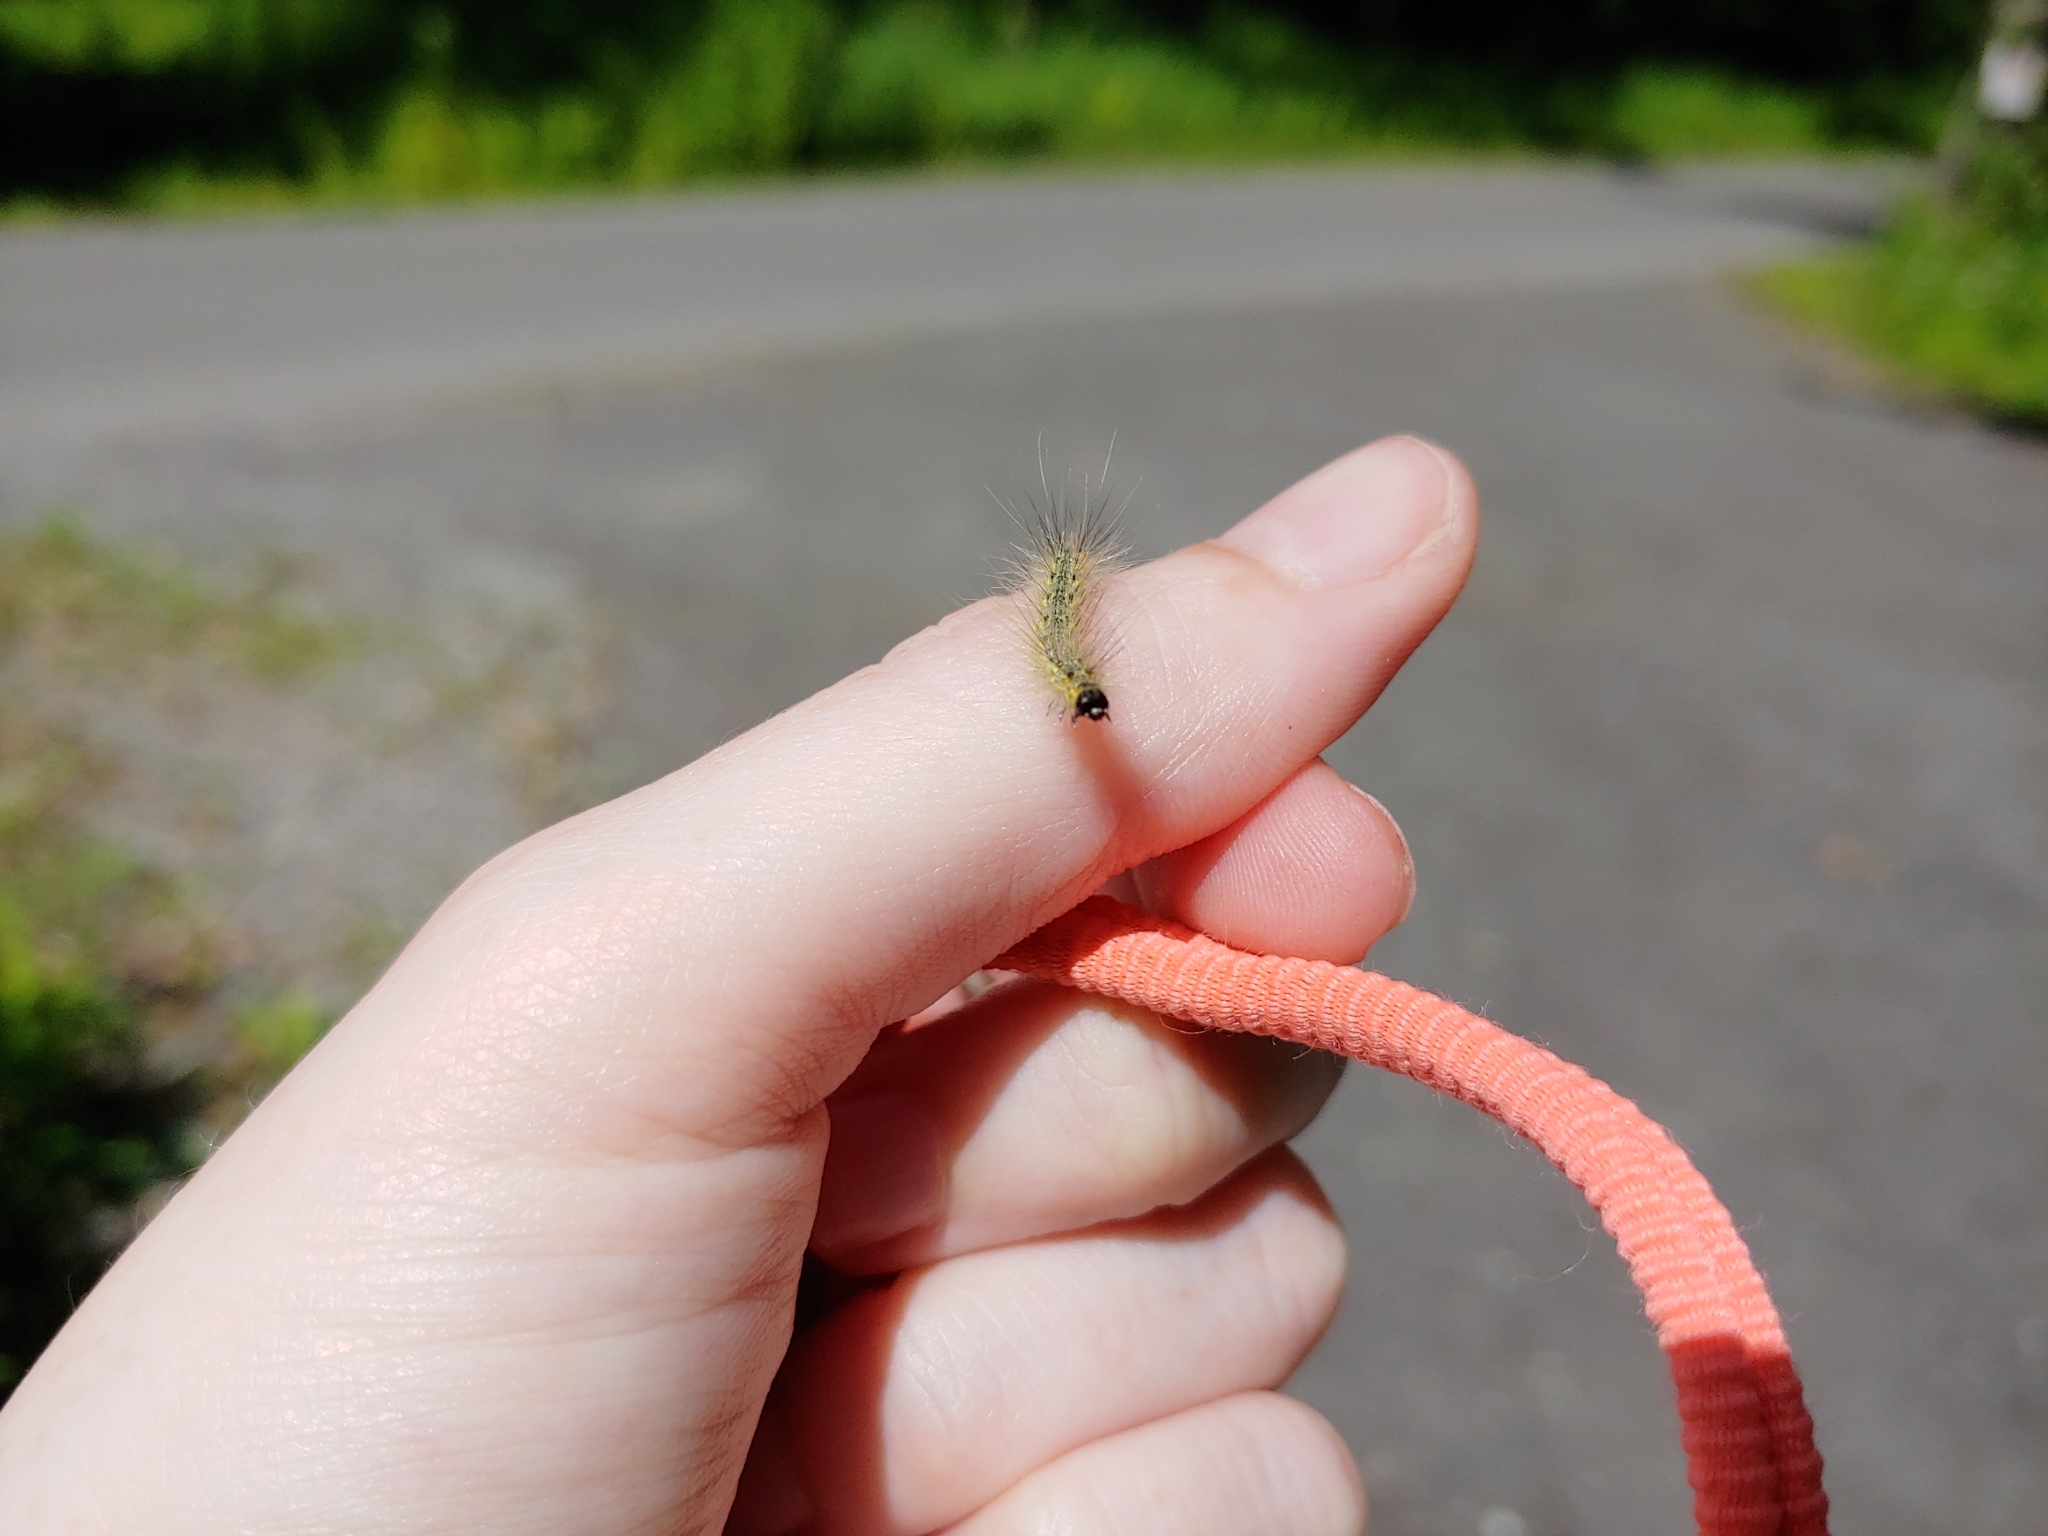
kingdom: Animalia
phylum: Arthropoda
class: Insecta
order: Lepidoptera
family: Erebidae
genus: Hyphantria
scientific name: Hyphantria cunea
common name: American white moth
